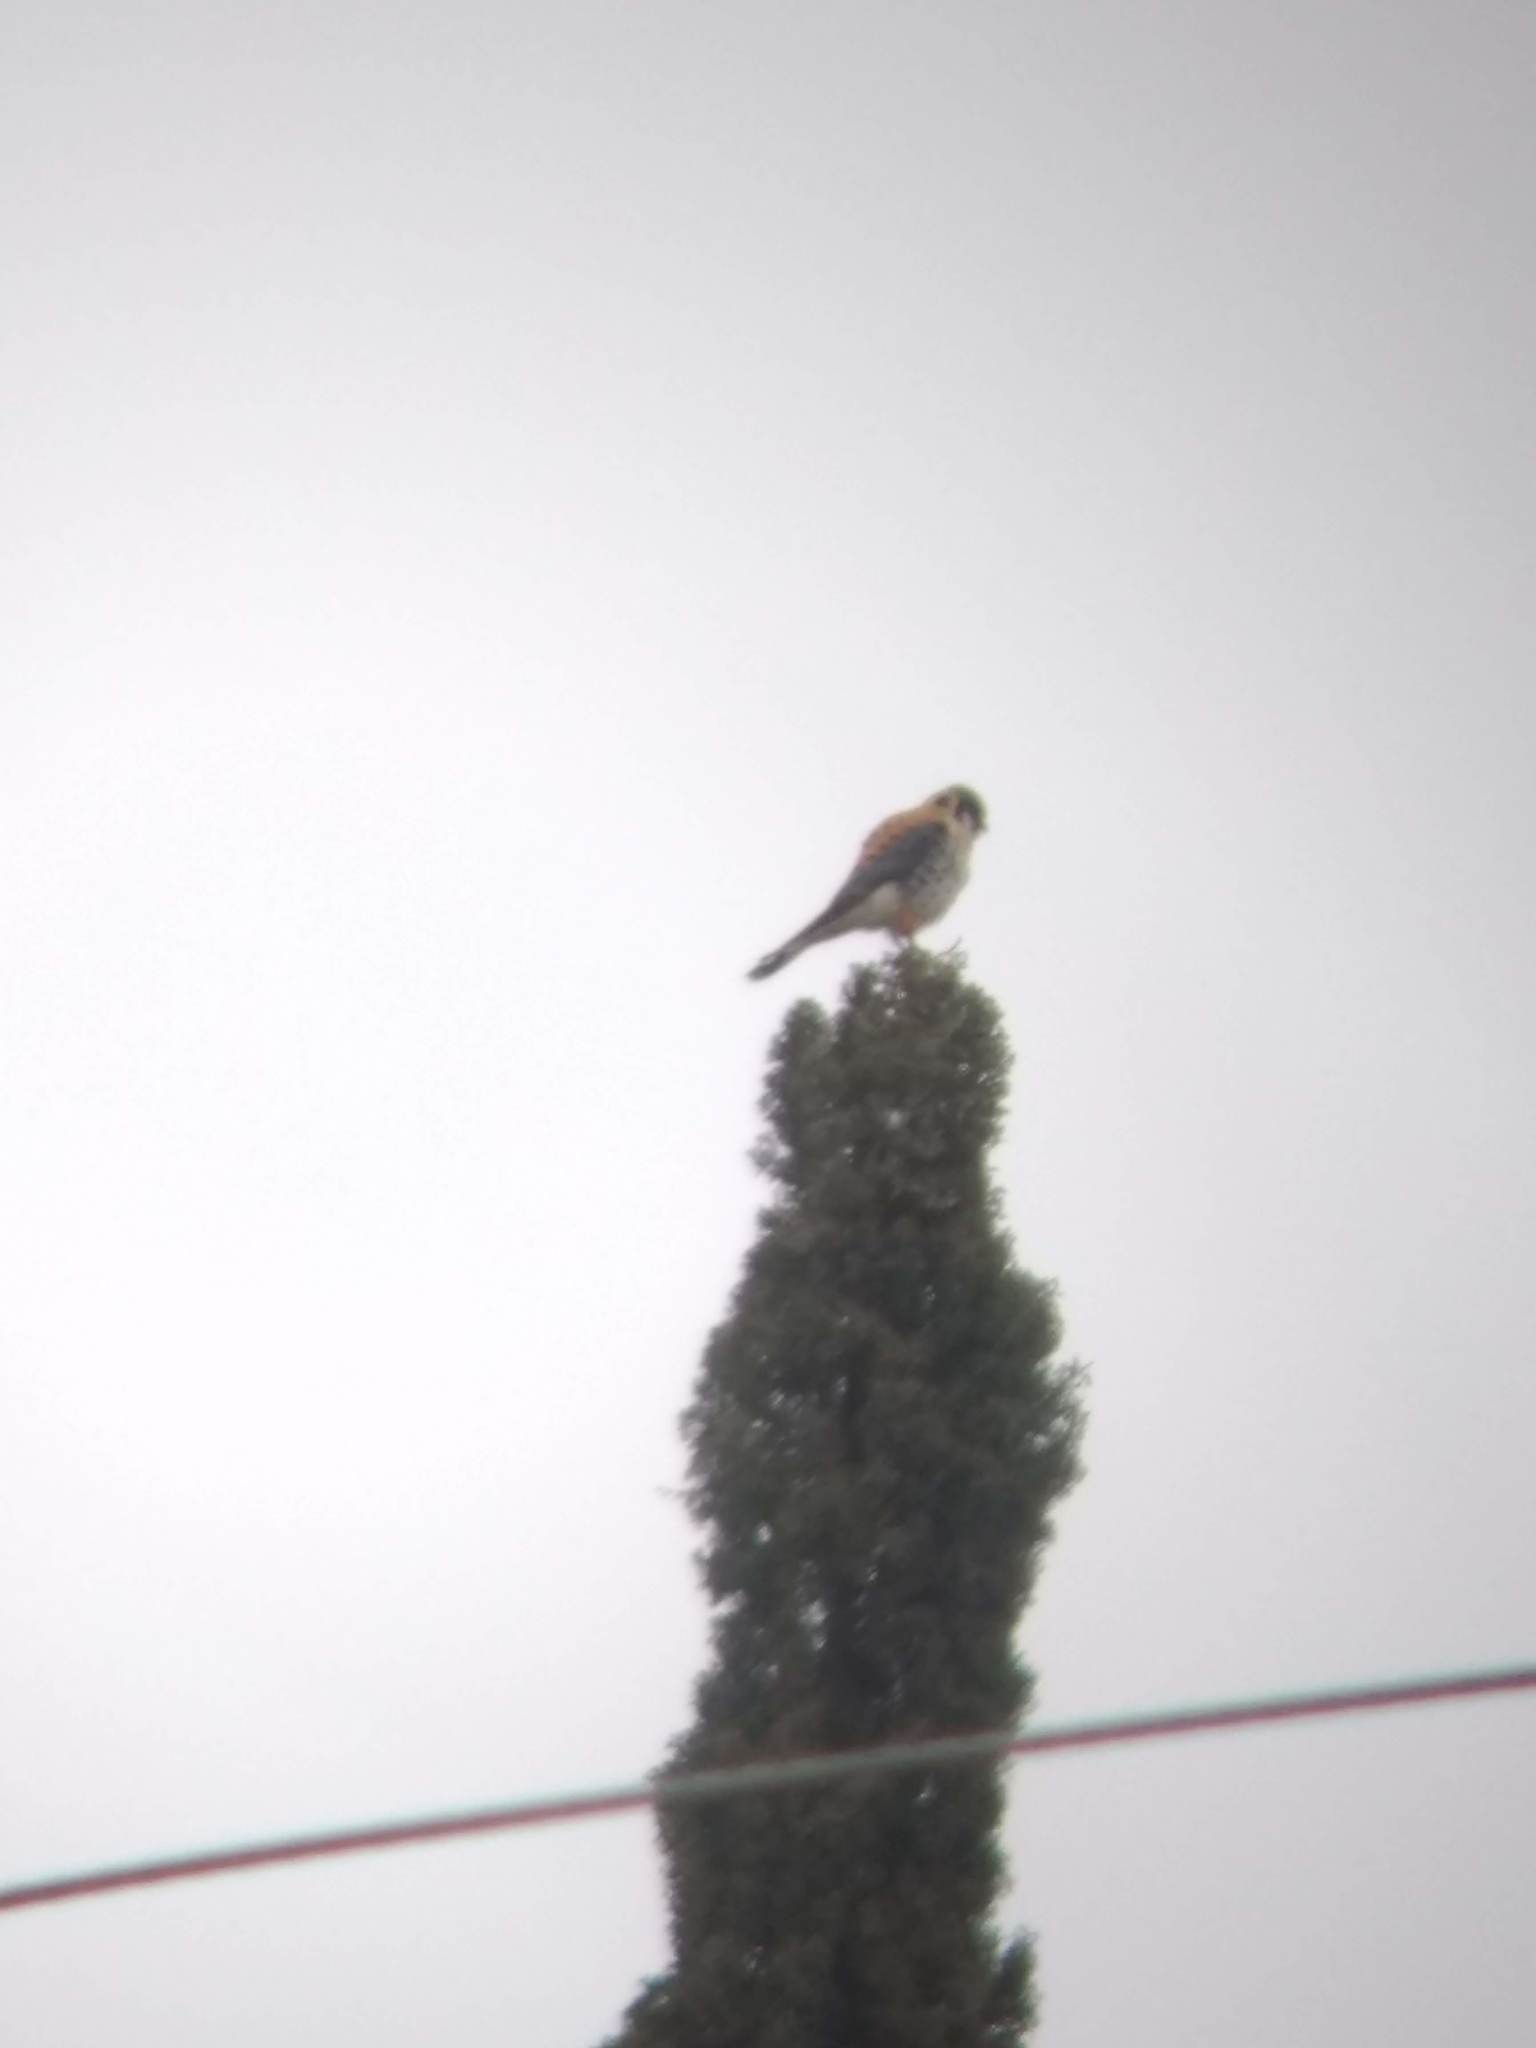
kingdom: Animalia
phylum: Chordata
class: Aves
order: Falconiformes
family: Falconidae
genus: Falco
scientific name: Falco sparverius
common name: American kestrel
